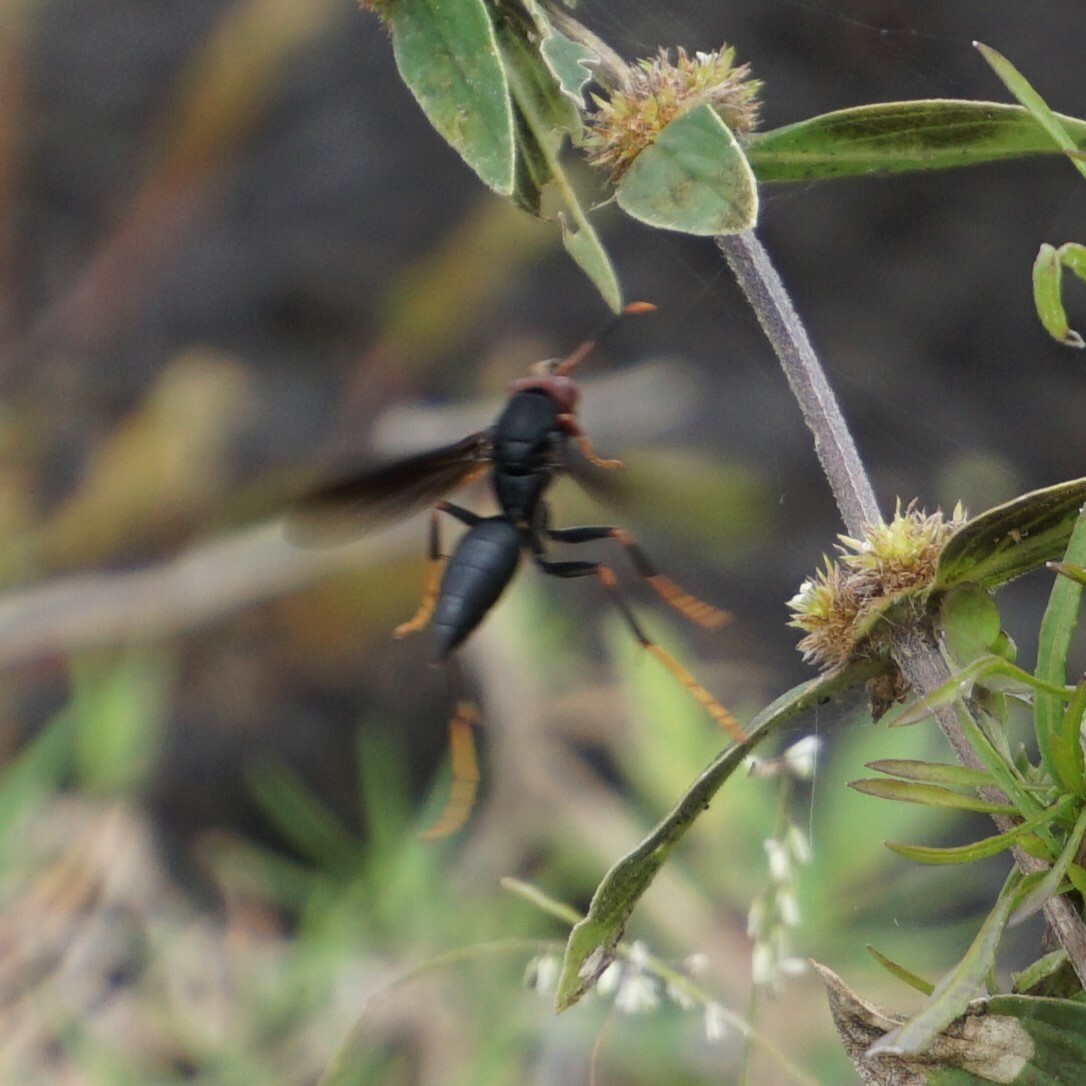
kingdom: Animalia
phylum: Arthropoda
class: Insecta
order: Hymenoptera
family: Eumenidae
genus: Polistes
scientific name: Polistes erythrocephalus
